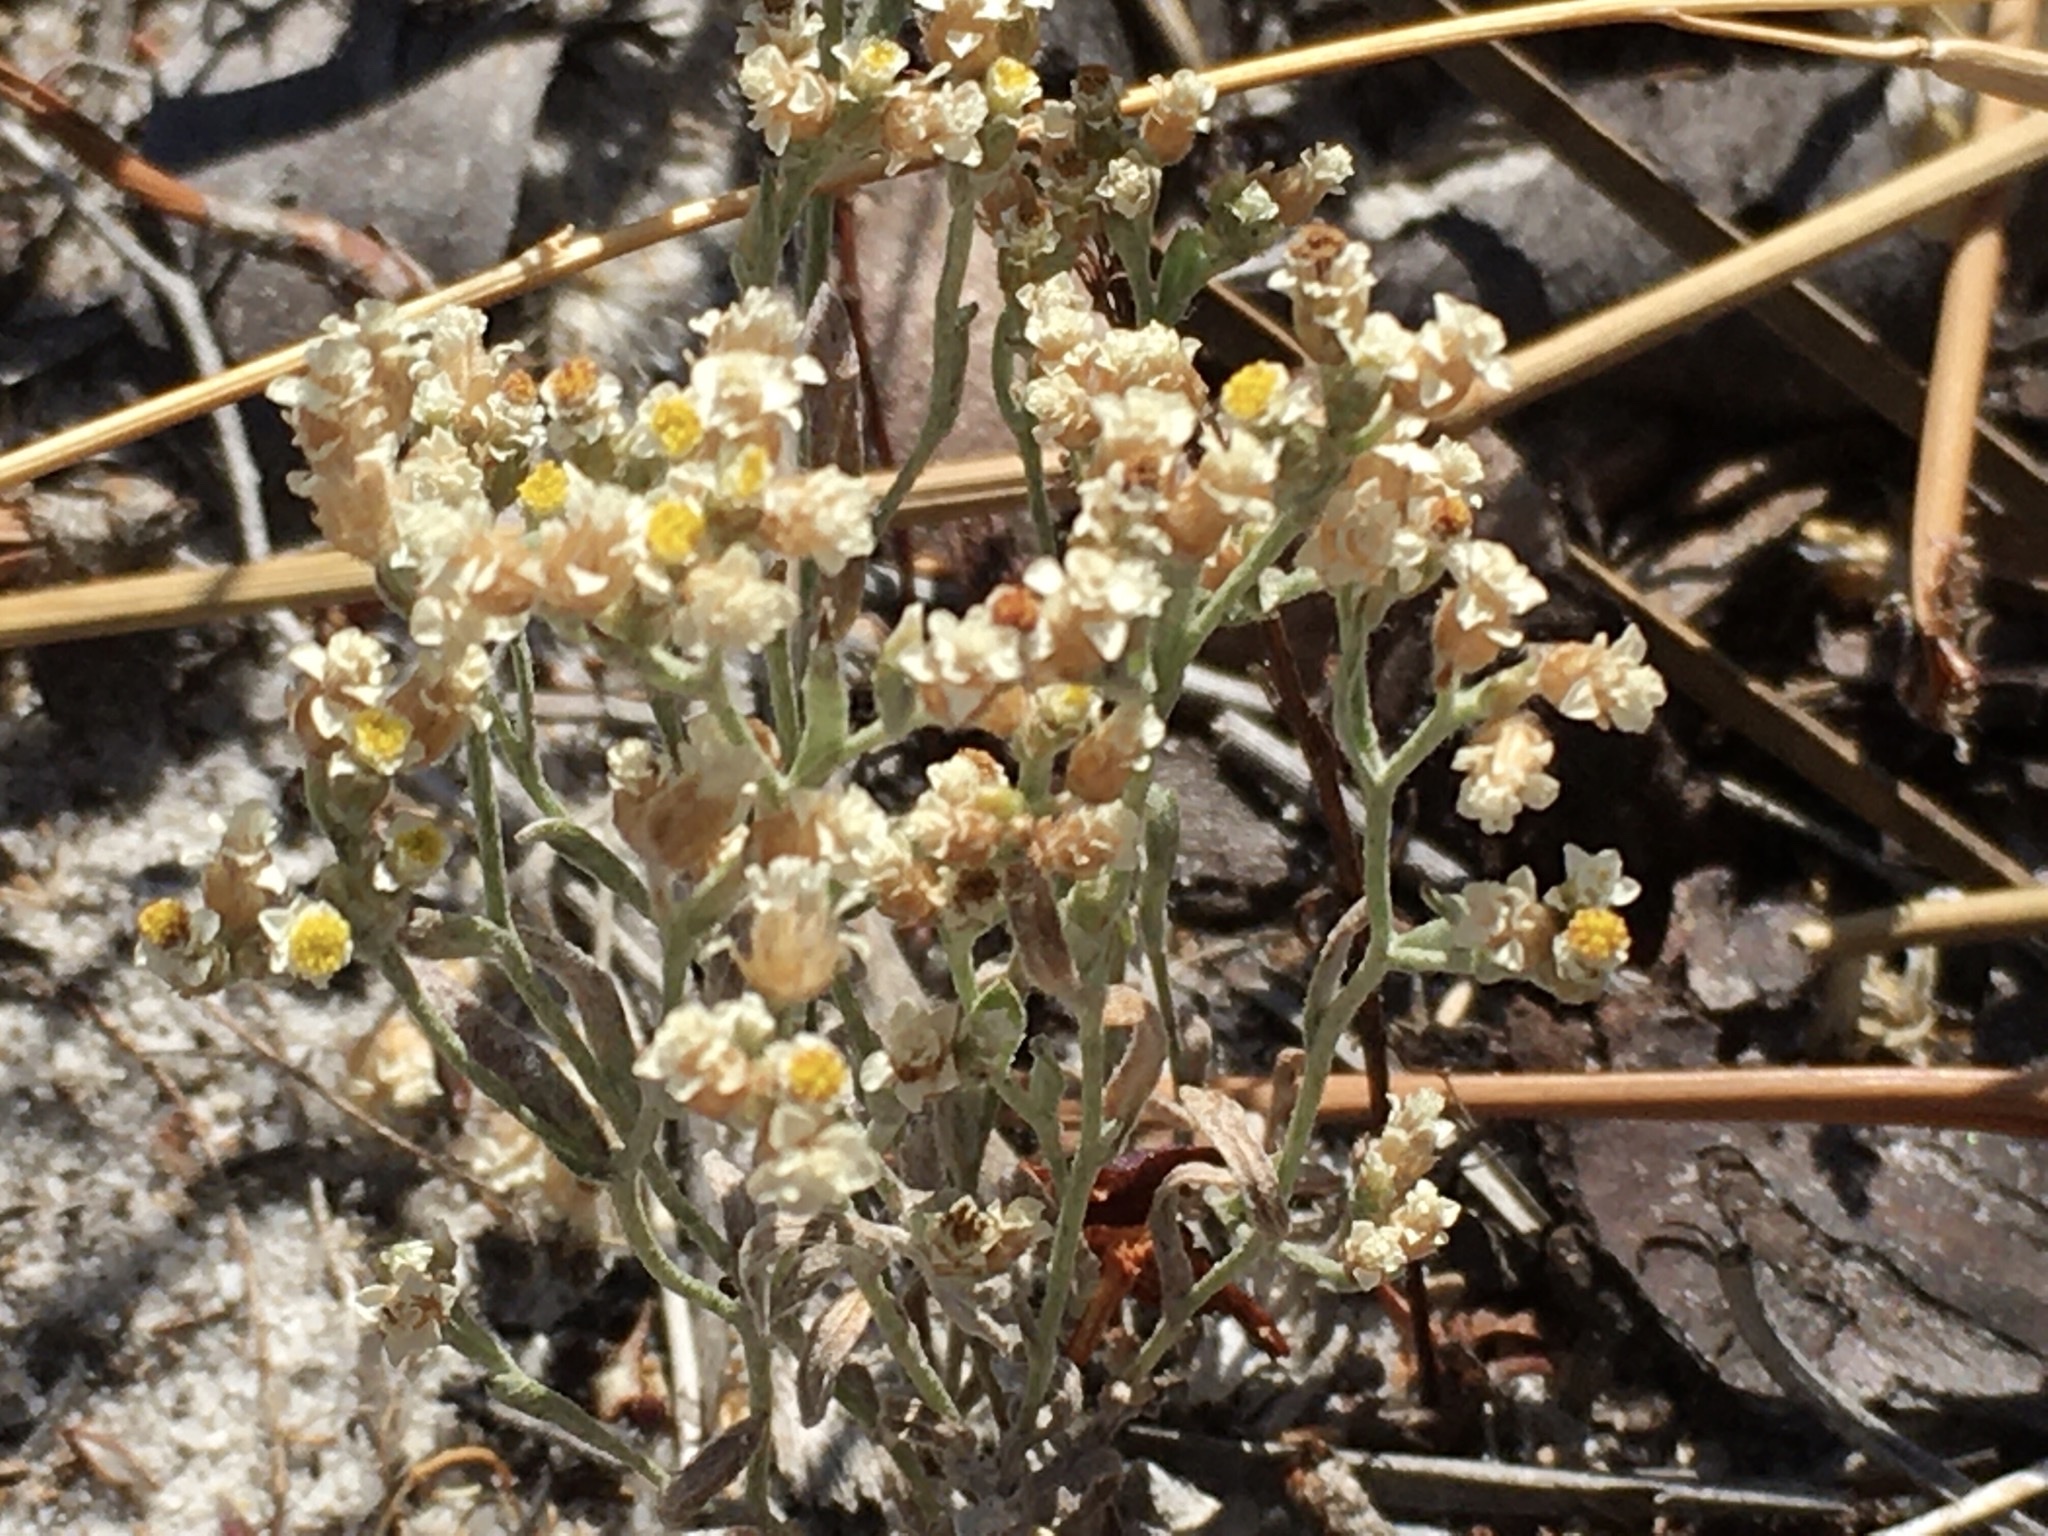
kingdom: Plantae
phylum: Tracheophyta
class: Magnoliopsida
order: Asterales
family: Asteraceae
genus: Helichrysum
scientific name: Helichrysum indicum
